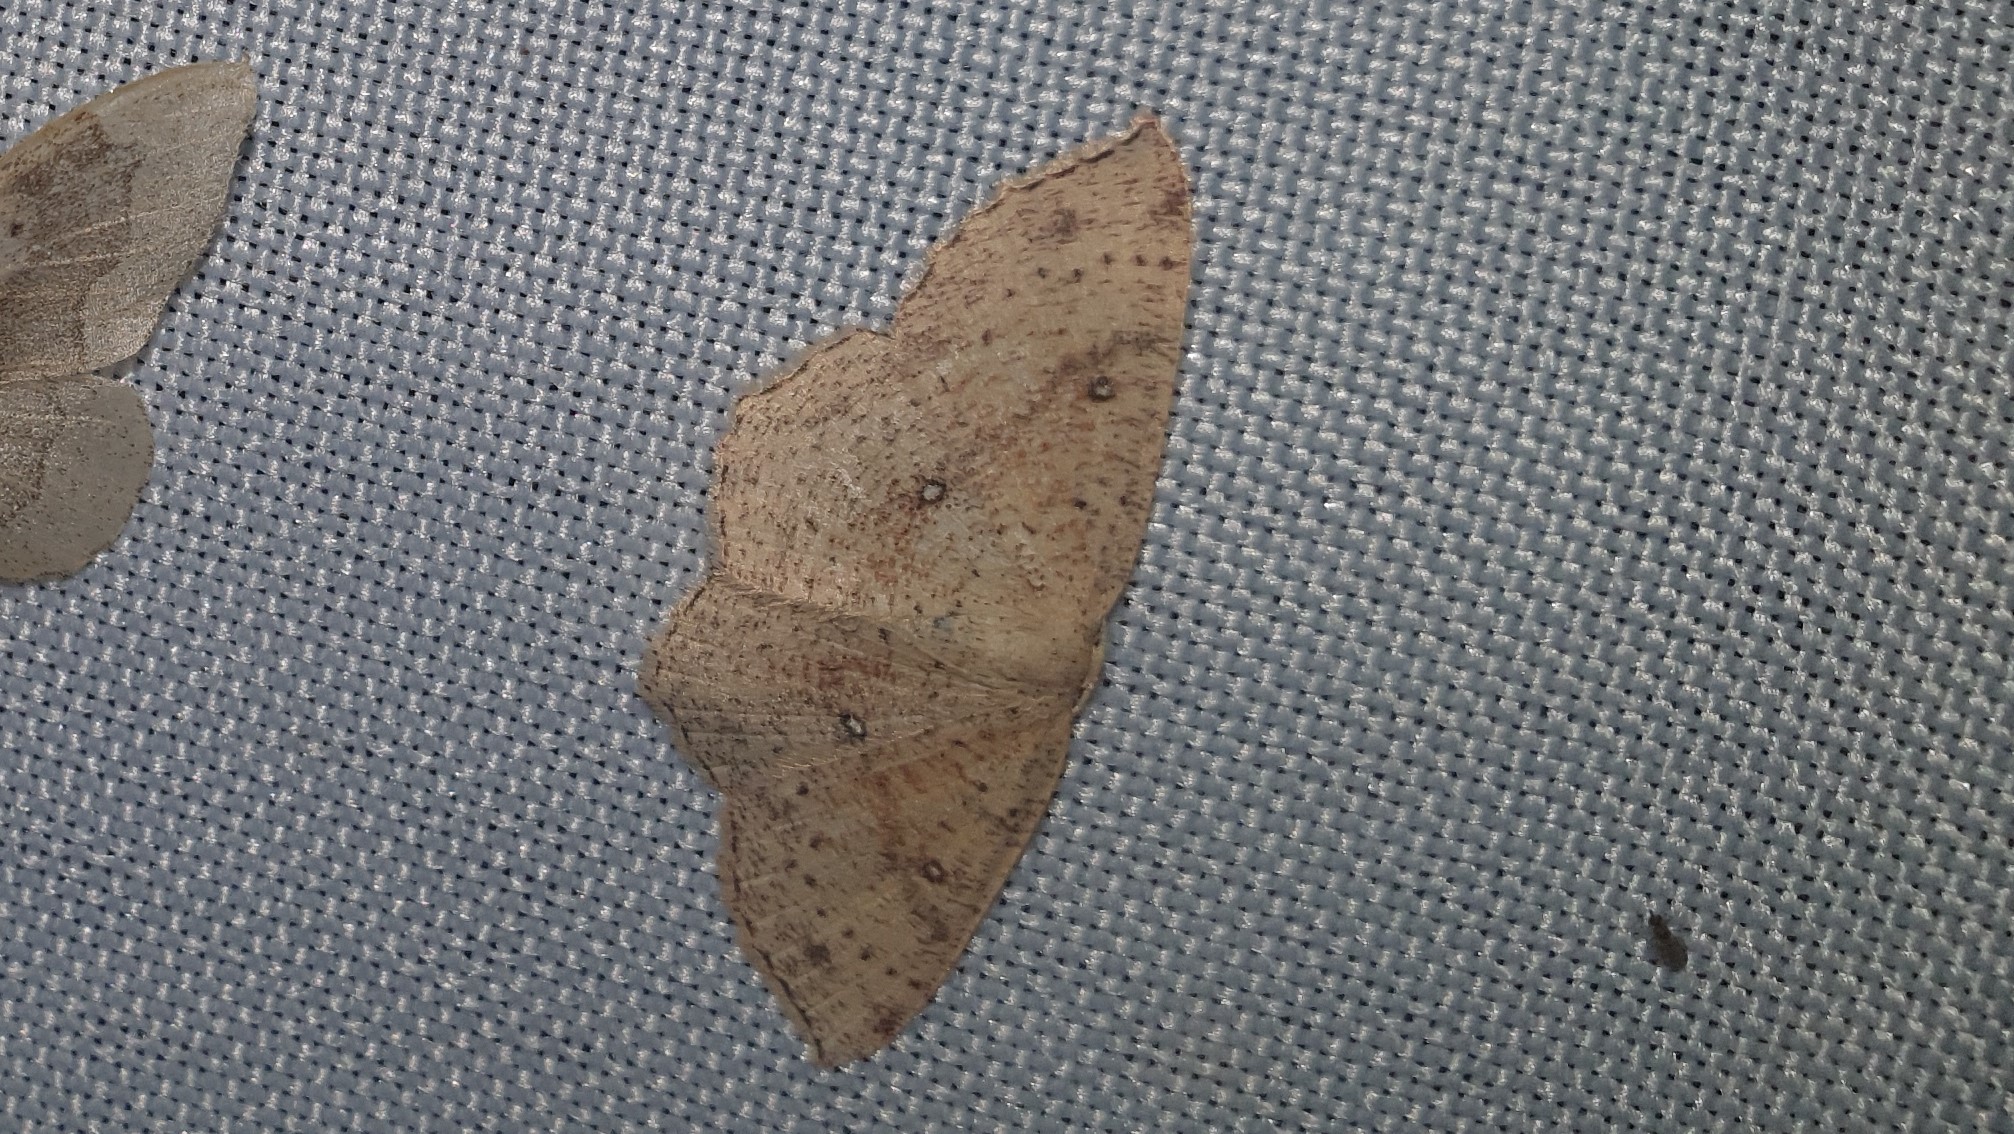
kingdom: Animalia
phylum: Arthropoda
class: Insecta
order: Lepidoptera
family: Geometridae
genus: Cyclophora
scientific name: Cyclophora porata
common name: False mocha
